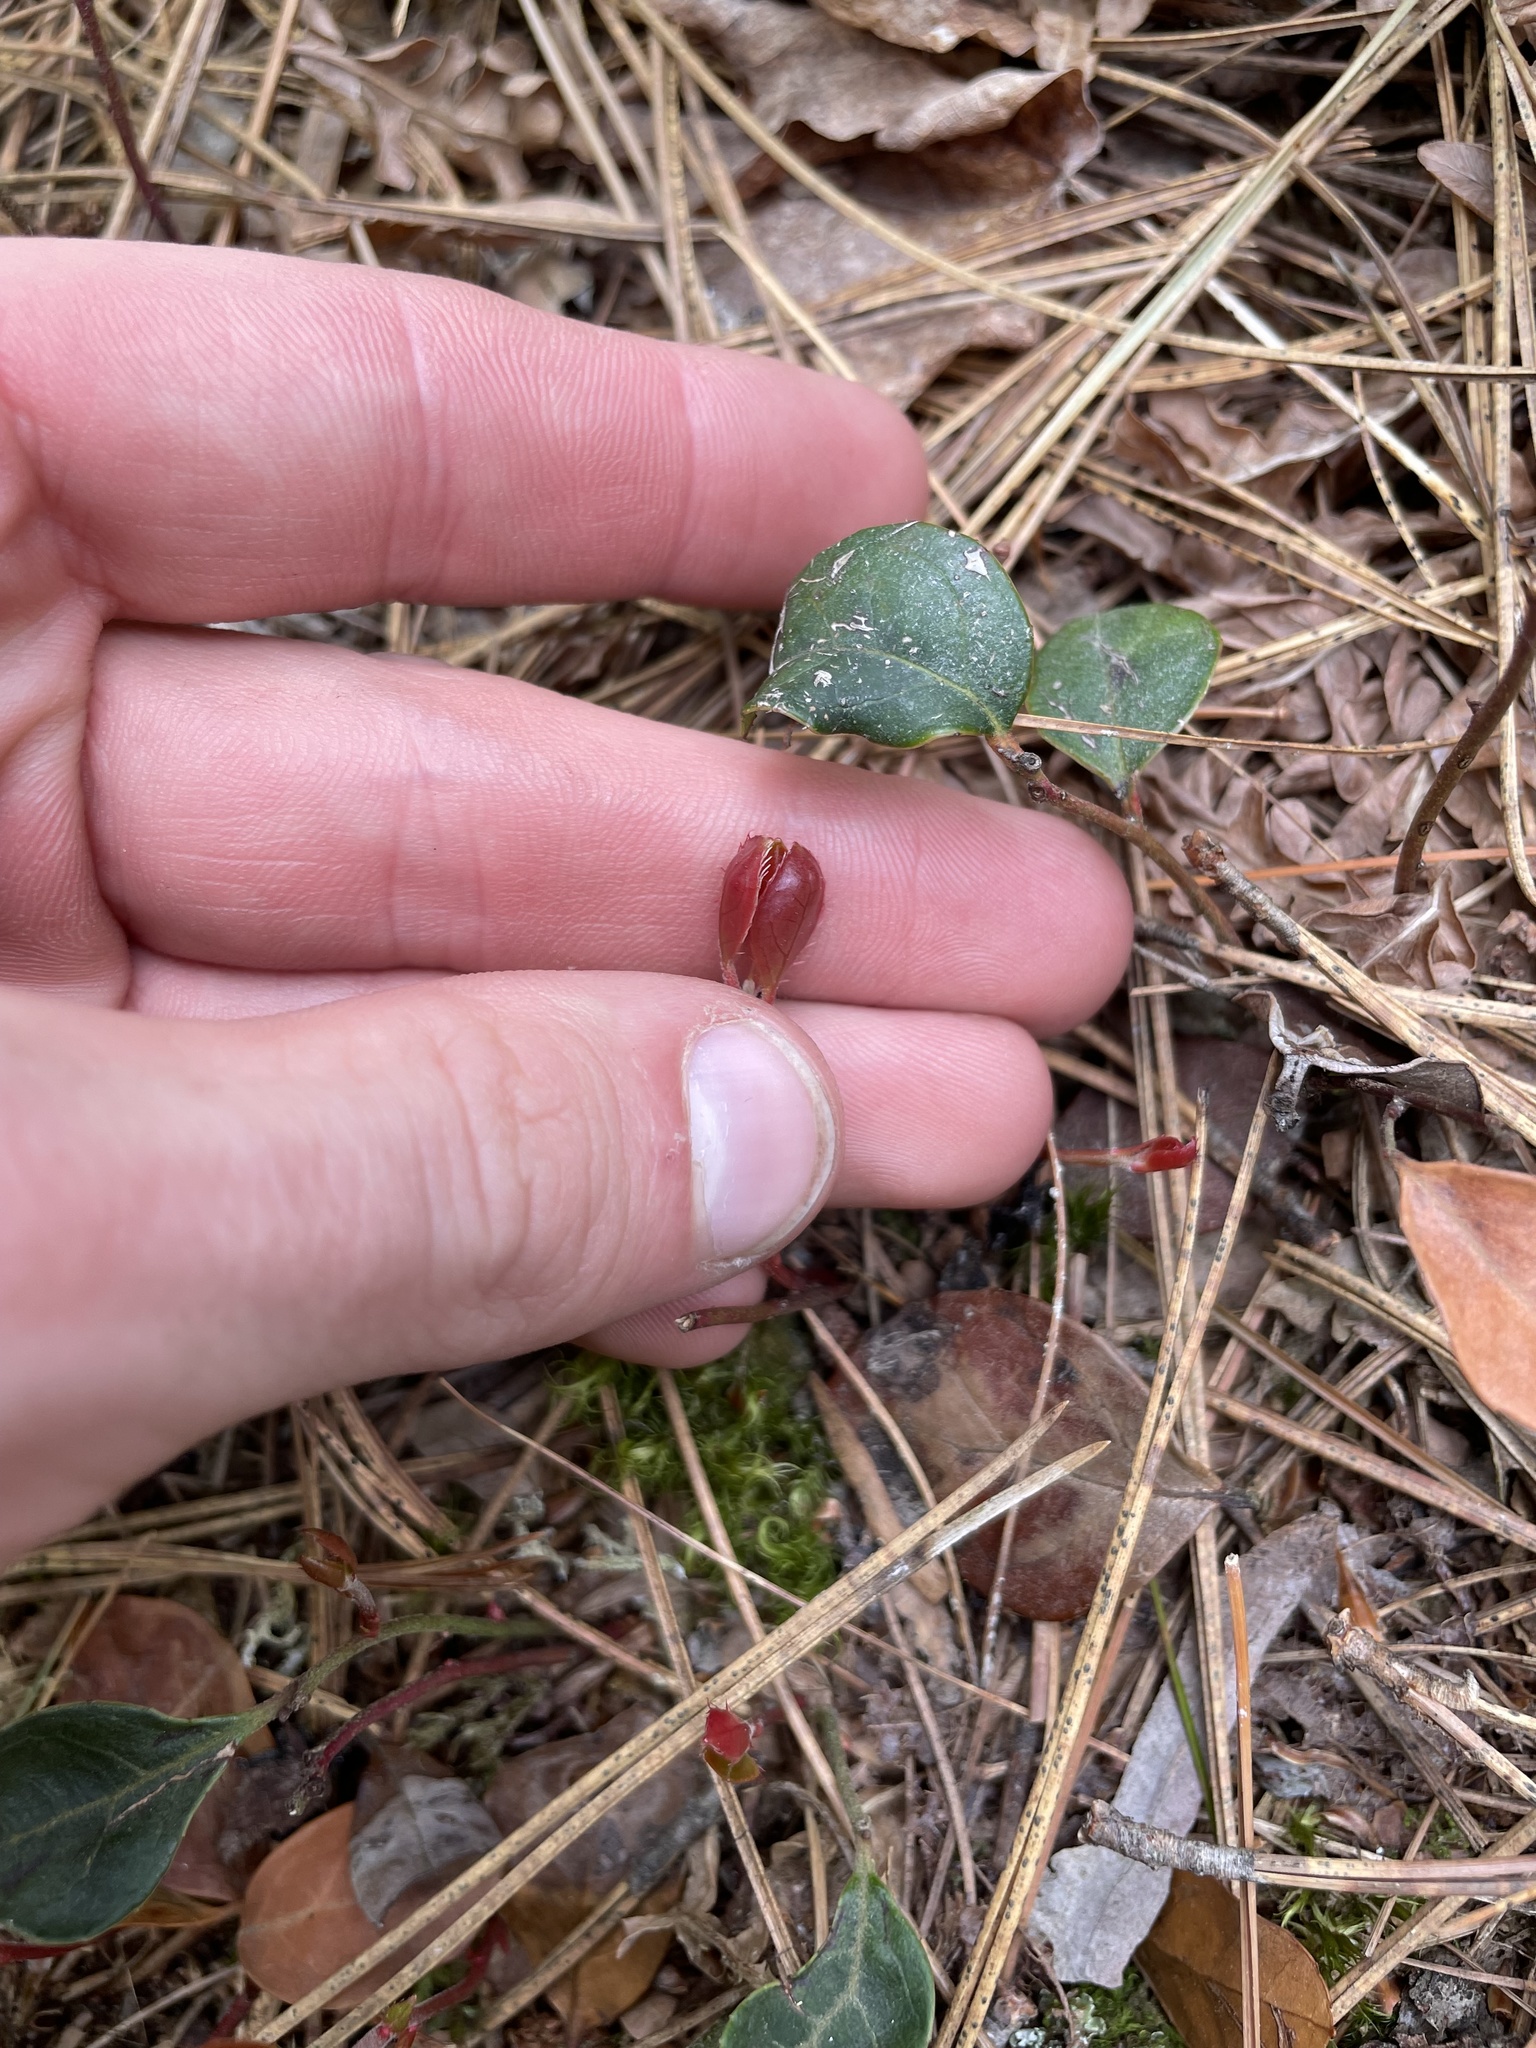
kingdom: Plantae
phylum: Tracheophyta
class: Magnoliopsida
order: Ericales
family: Ericaceae
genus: Gaultheria
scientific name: Gaultheria procumbens
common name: Checkerberry
